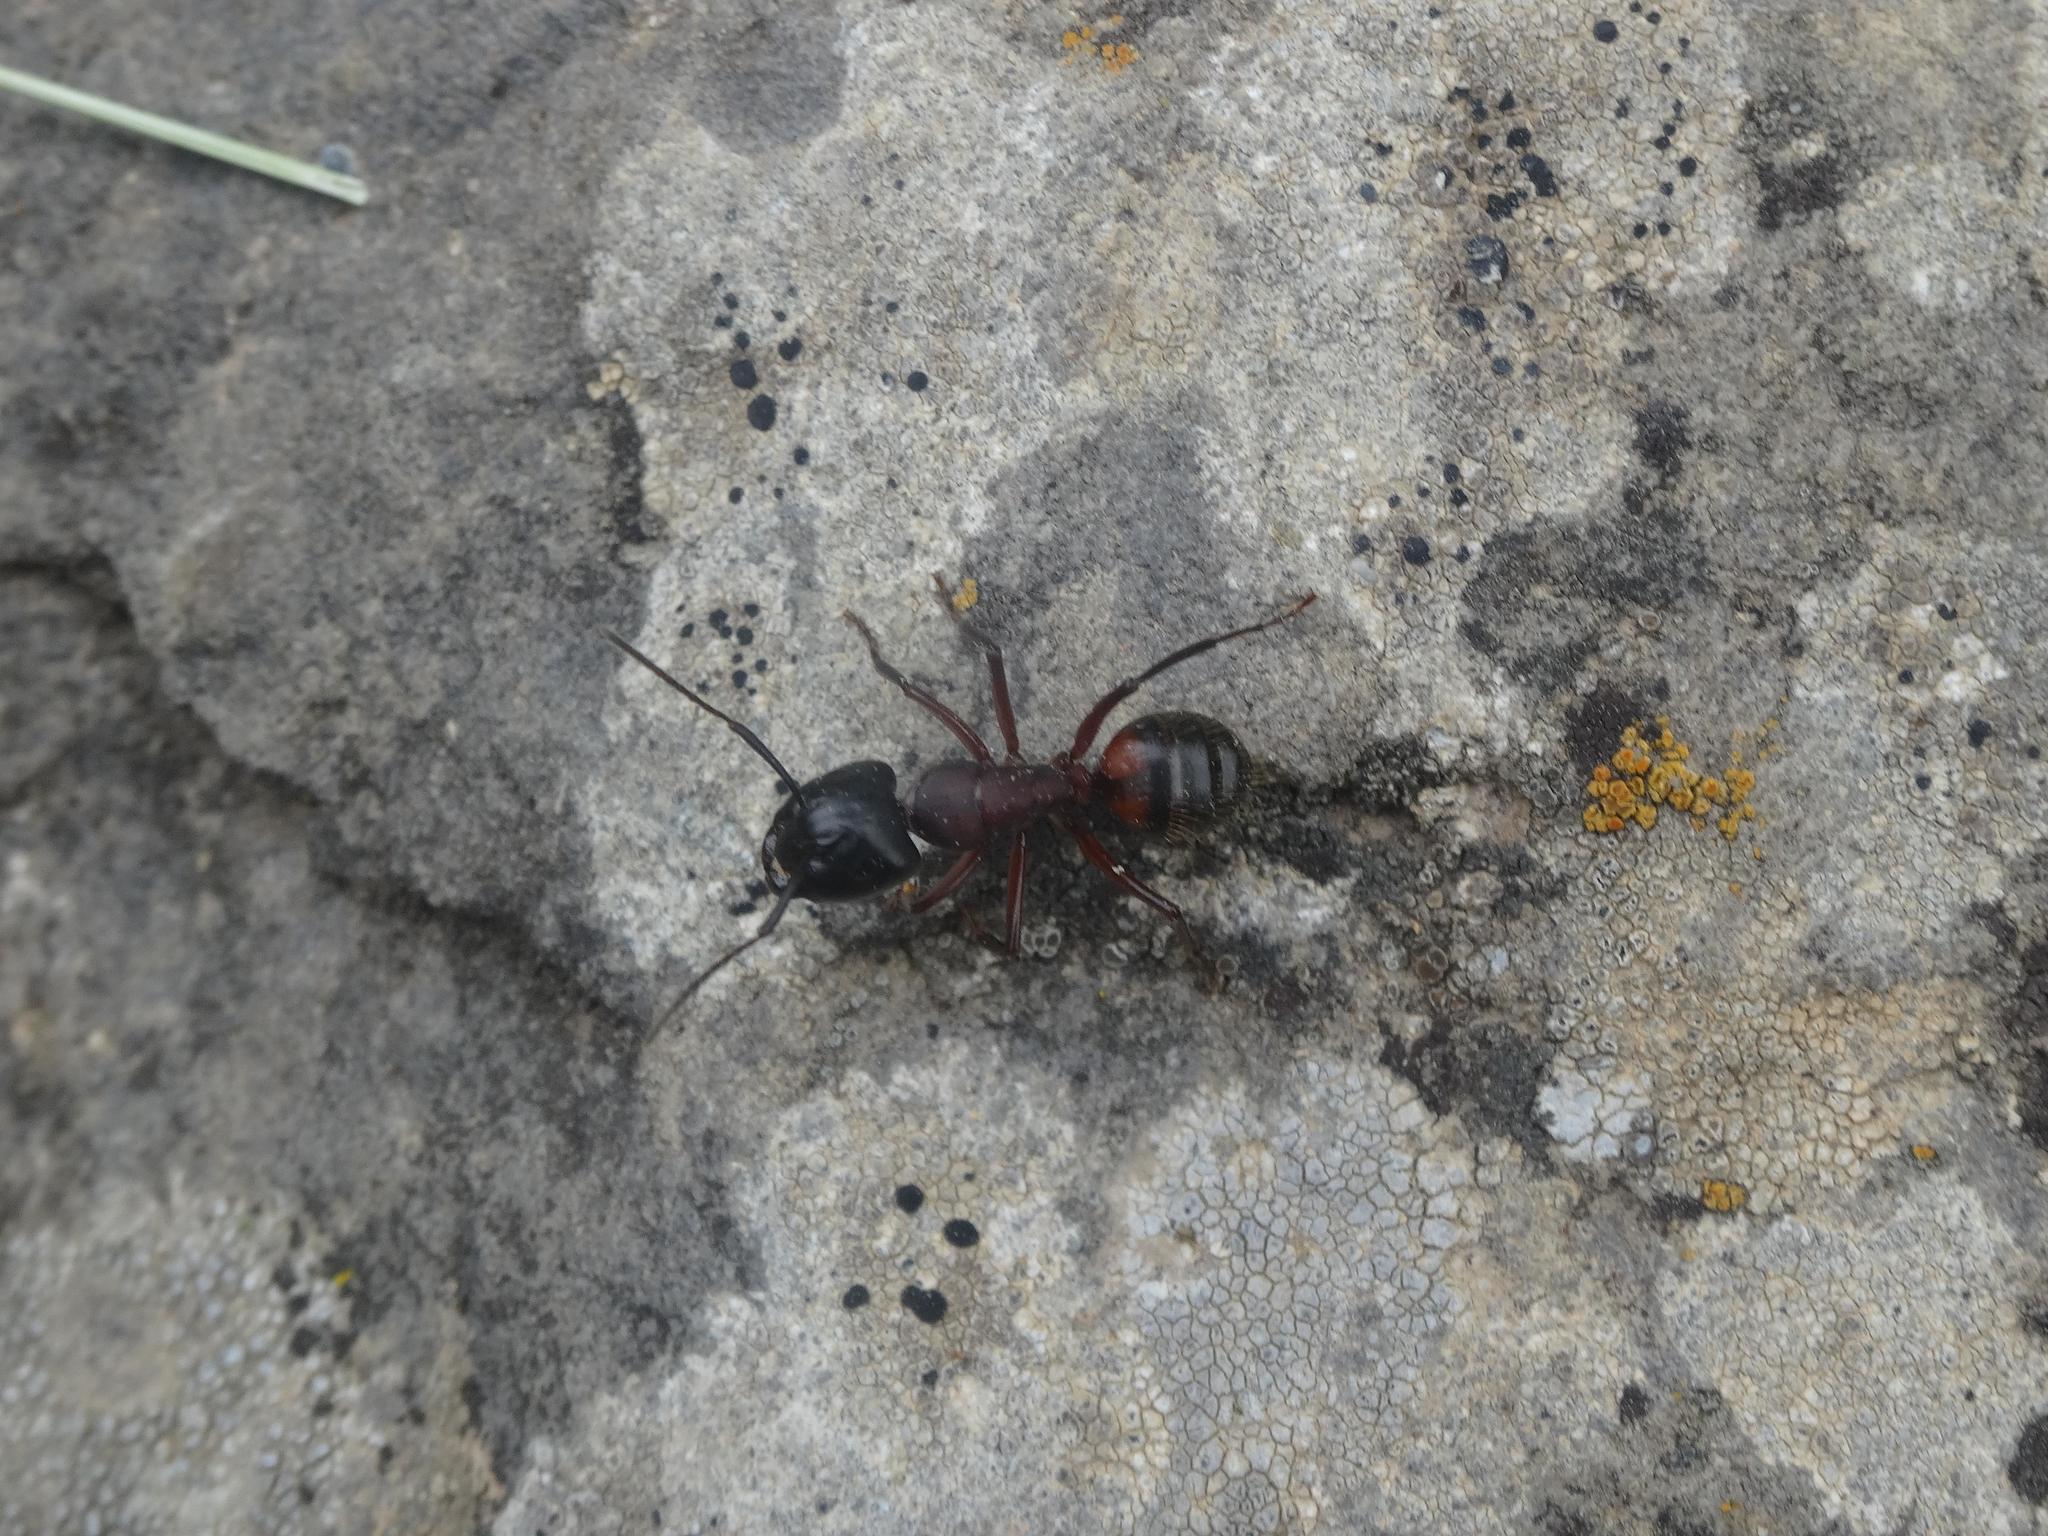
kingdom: Animalia
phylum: Arthropoda
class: Insecta
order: Hymenoptera
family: Formicidae
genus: Camponotus
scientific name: Camponotus ligniperdus
